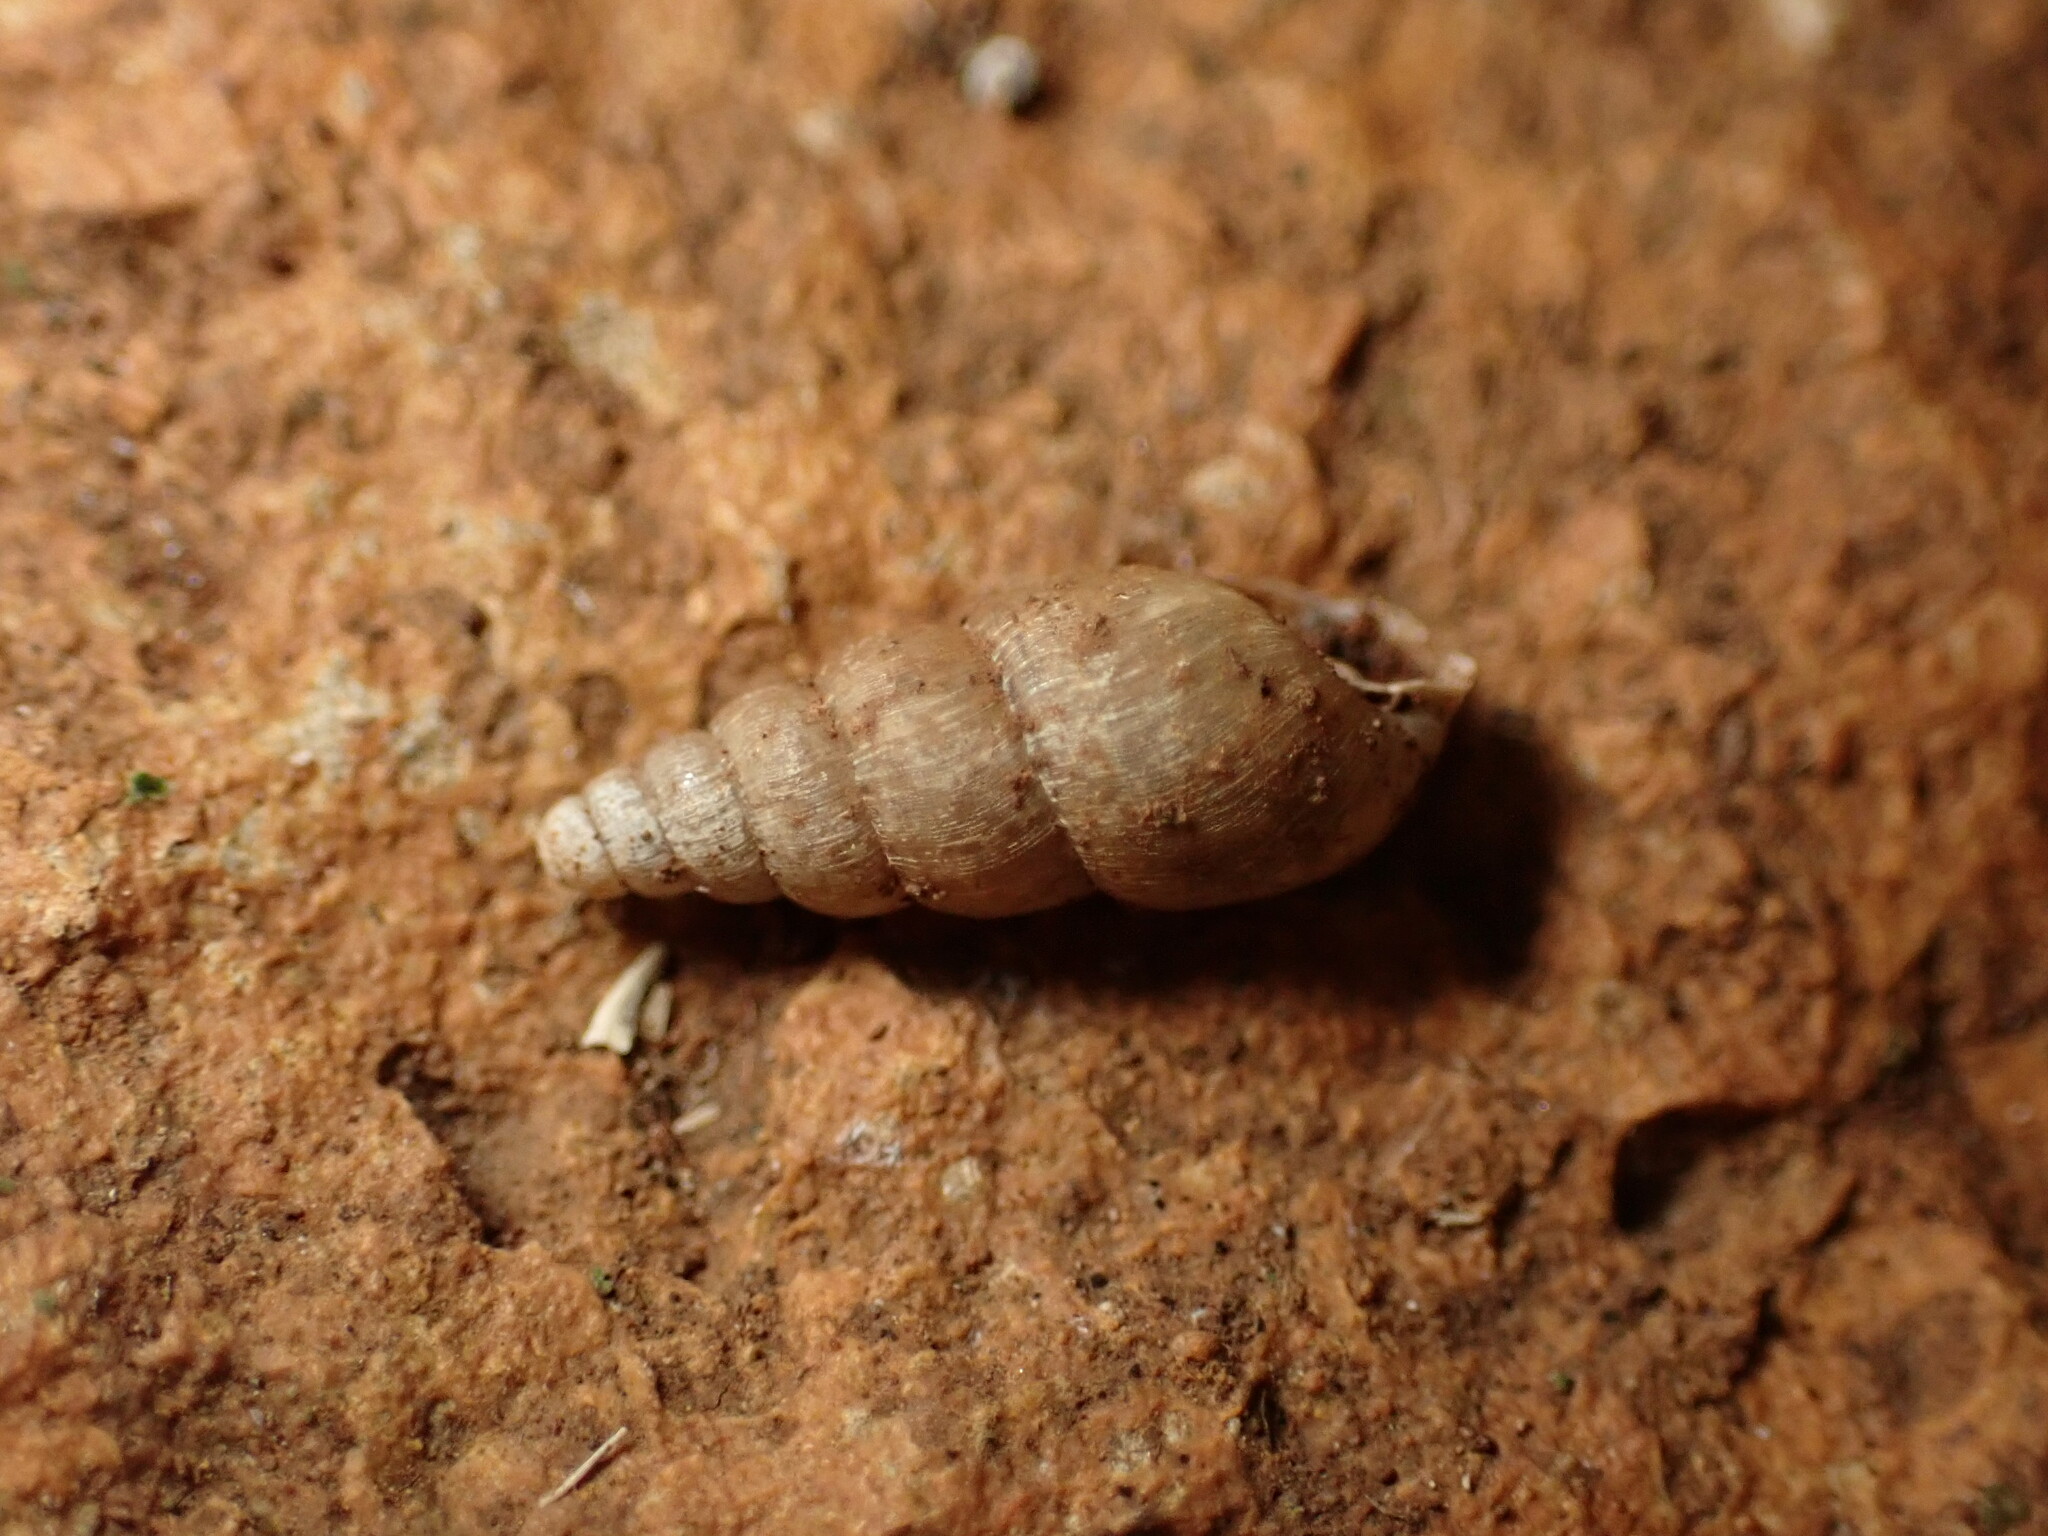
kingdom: Animalia
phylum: Mollusca
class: Gastropoda
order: Stylommatophora
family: Achatinidae
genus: Paropeas
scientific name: Paropeas achatinaceum
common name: Snail
